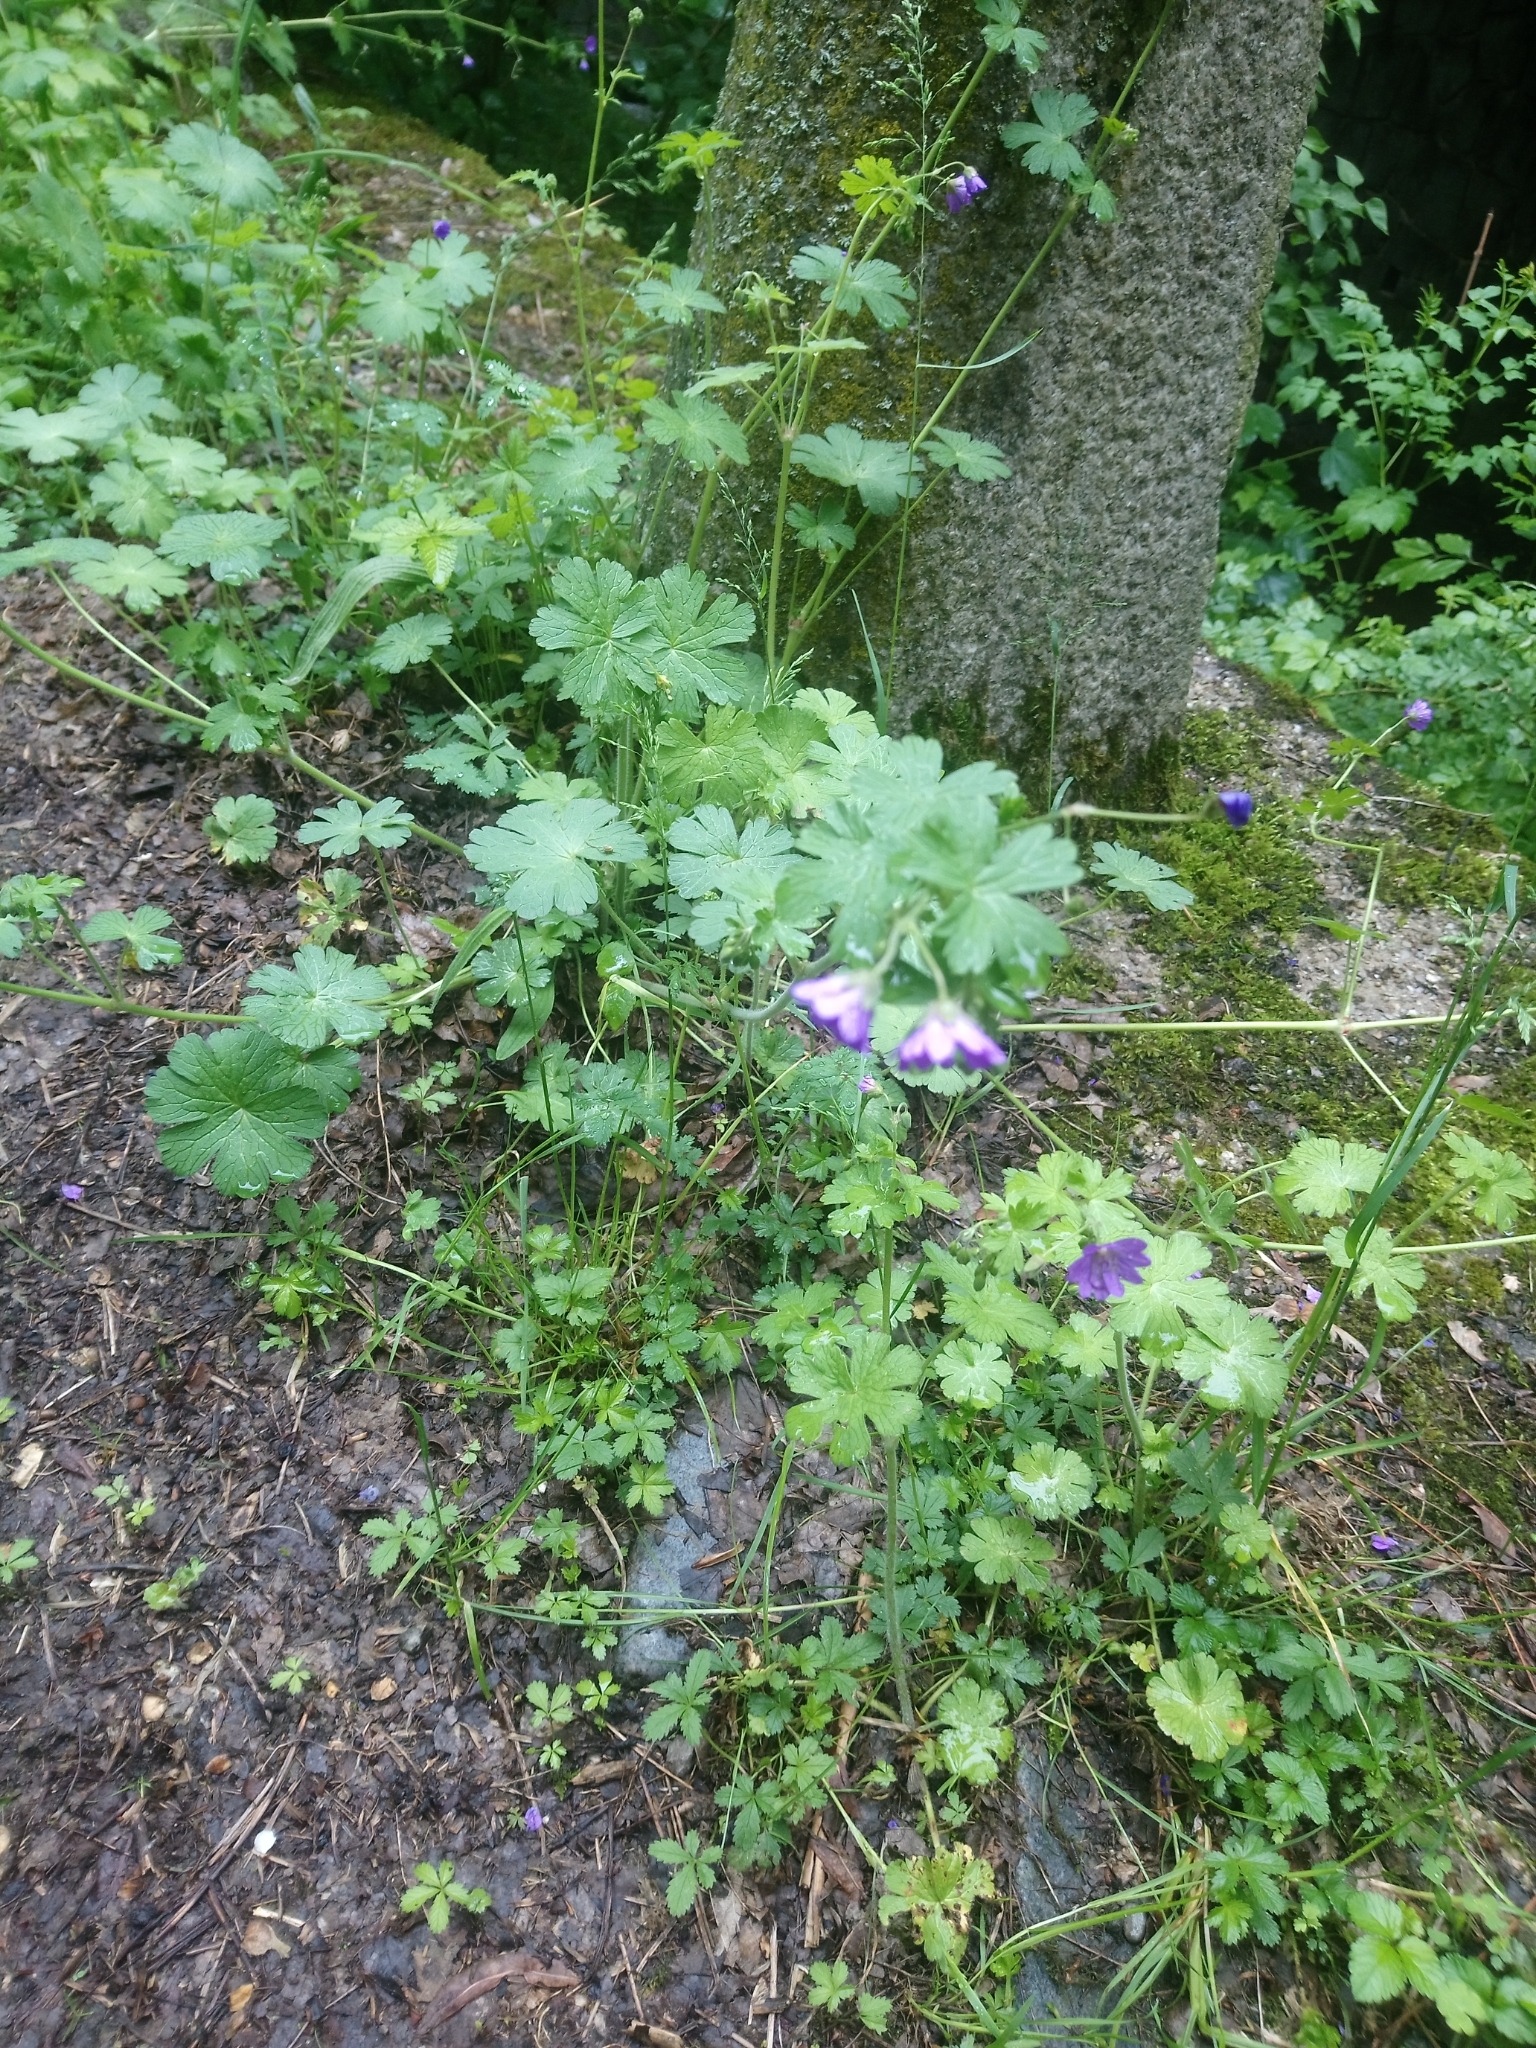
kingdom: Plantae
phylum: Tracheophyta
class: Magnoliopsida
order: Geraniales
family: Geraniaceae
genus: Geranium
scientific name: Geranium pyrenaicum
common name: Hedgerow crane's-bill
